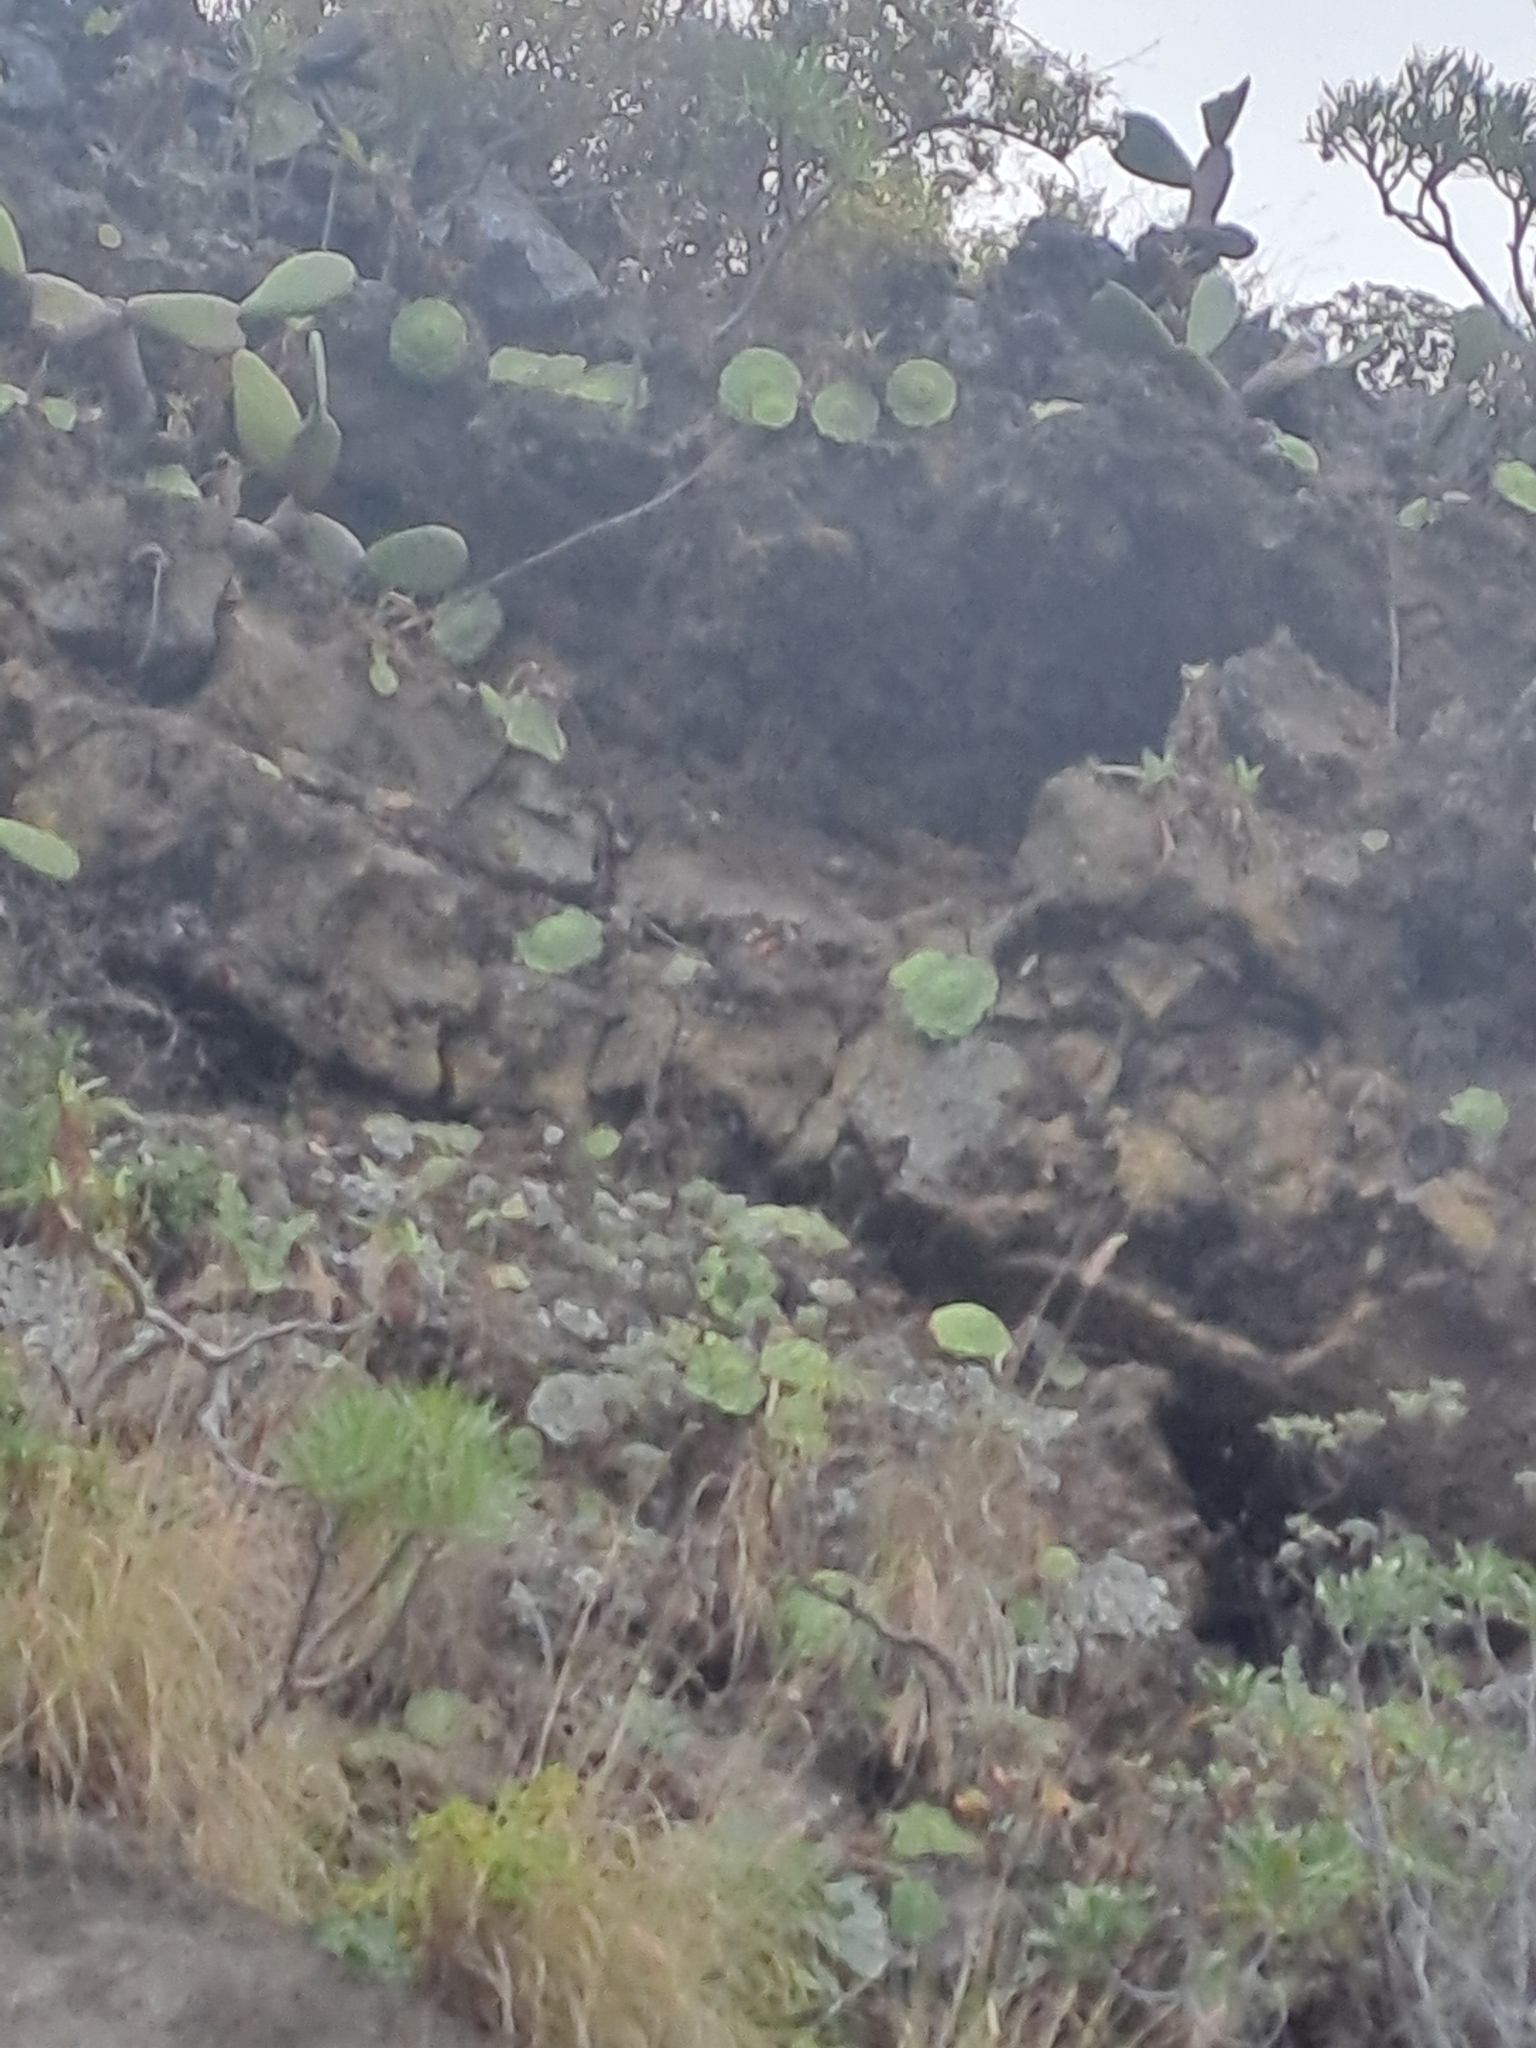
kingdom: Plantae
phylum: Tracheophyta
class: Magnoliopsida
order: Saxifragales
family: Crassulaceae
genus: Aeonium
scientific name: Aeonium tabulaeforme
